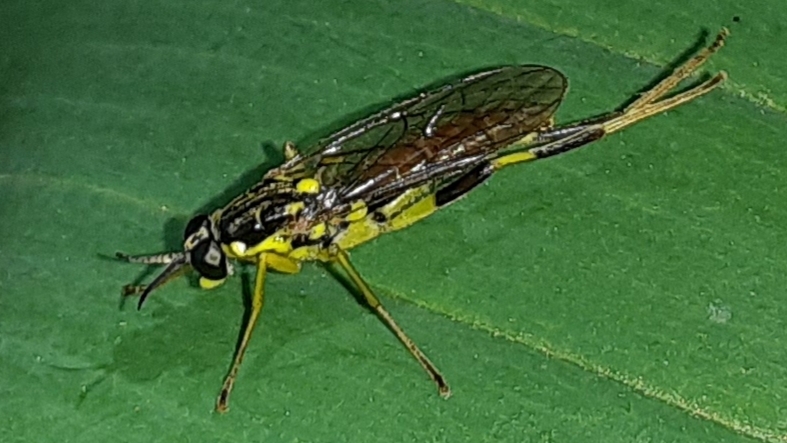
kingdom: Animalia
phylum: Arthropoda
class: Insecta
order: Diptera
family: Xylomyidae
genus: Xylomya
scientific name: Xylomya simillima
